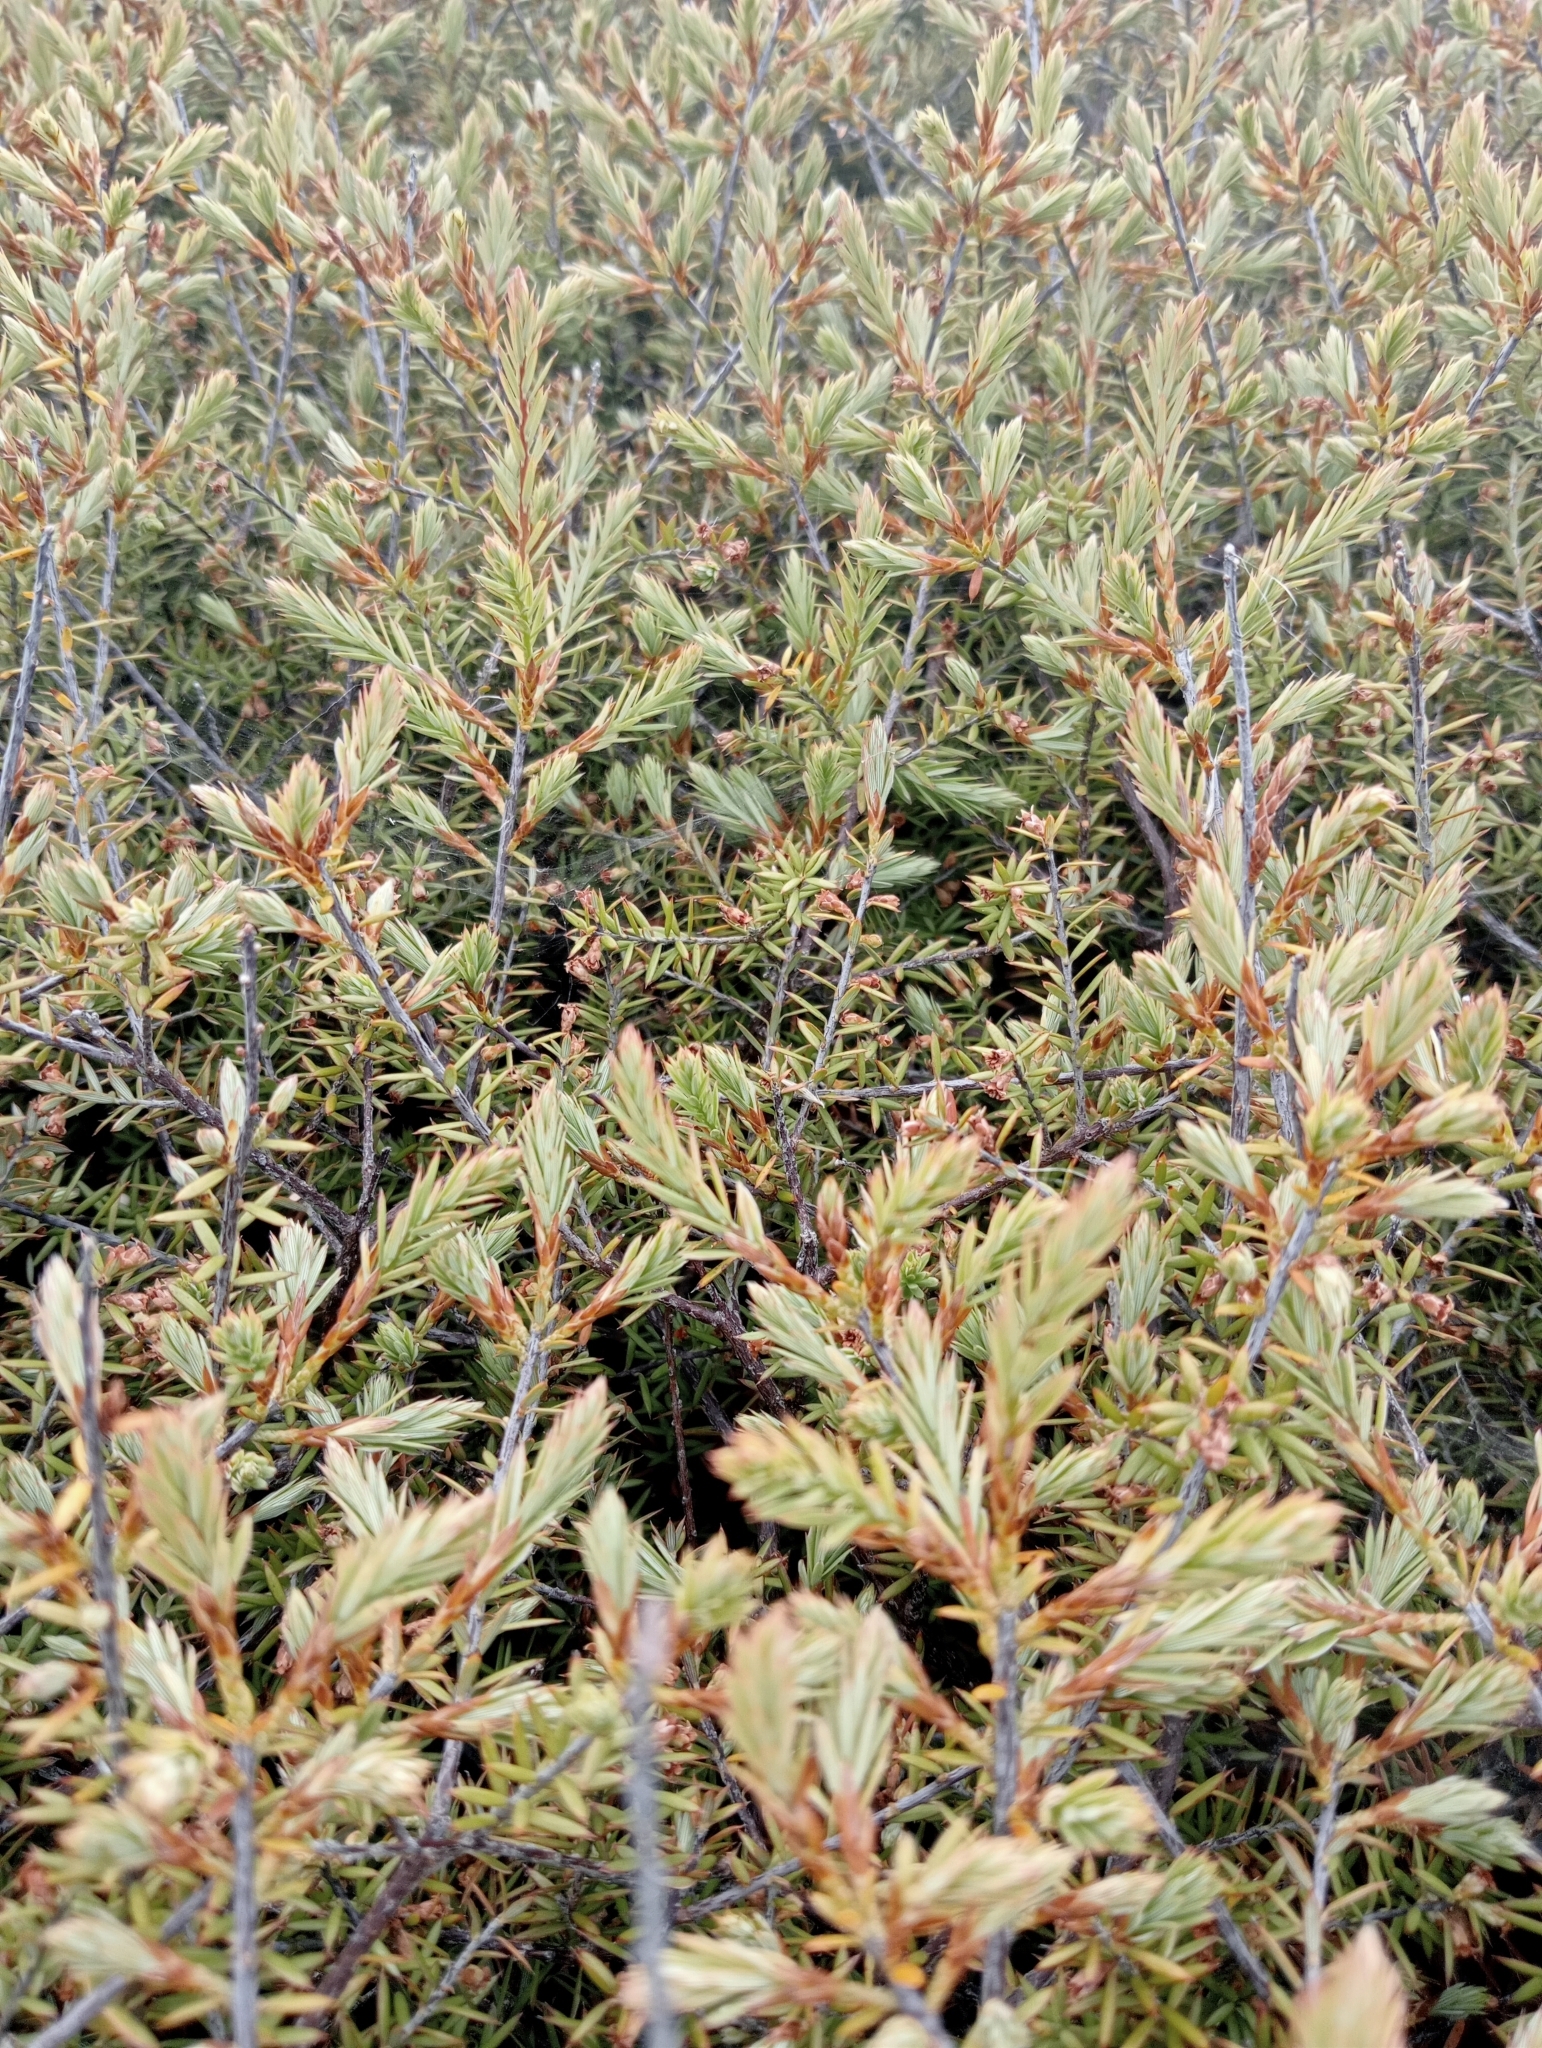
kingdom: Plantae
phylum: Tracheophyta
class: Magnoliopsida
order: Ericales
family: Ericaceae
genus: Leptecophylla
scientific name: Leptecophylla juniperina
